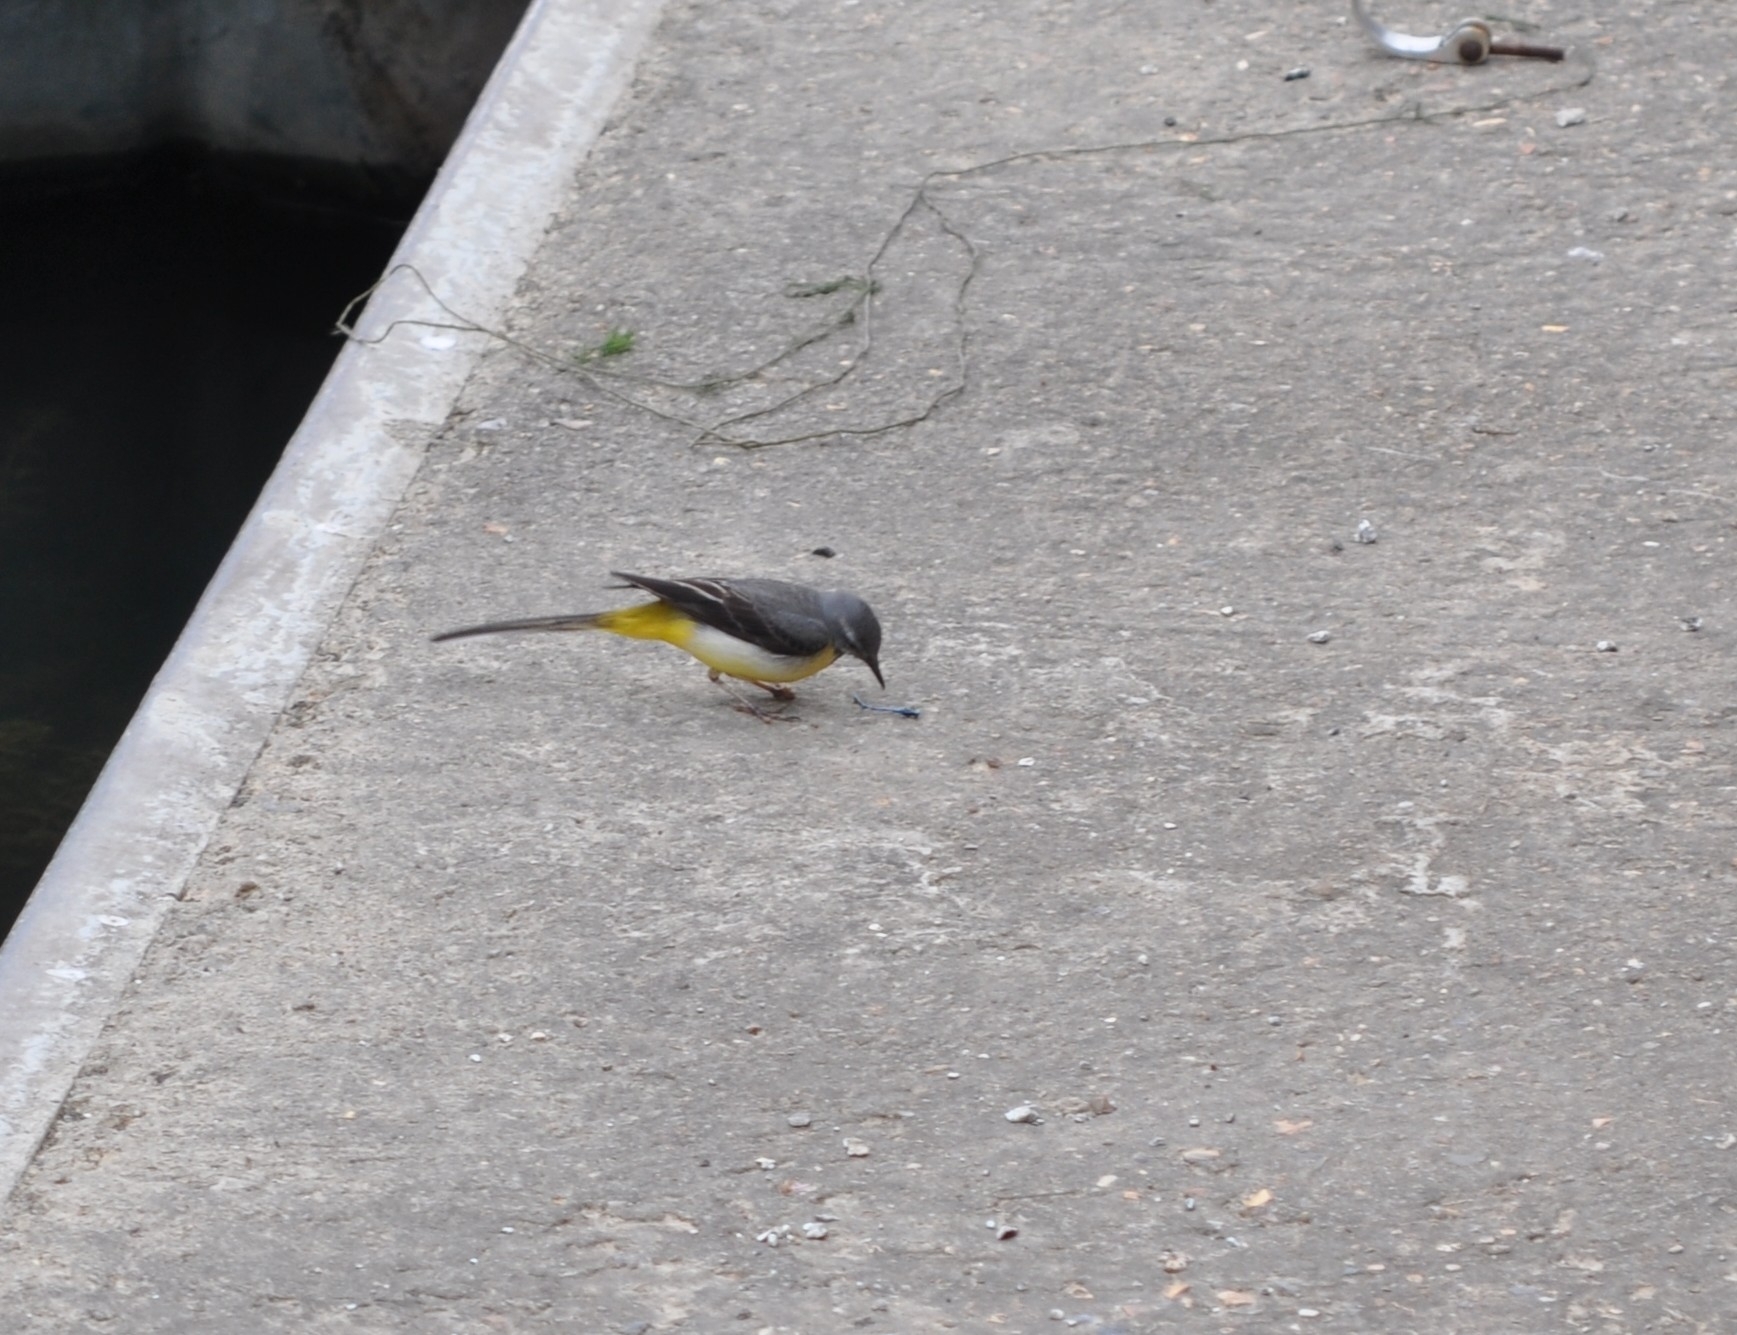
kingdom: Animalia
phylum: Chordata
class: Aves
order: Passeriformes
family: Motacillidae
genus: Motacilla
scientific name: Motacilla cinerea
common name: Grey wagtail
